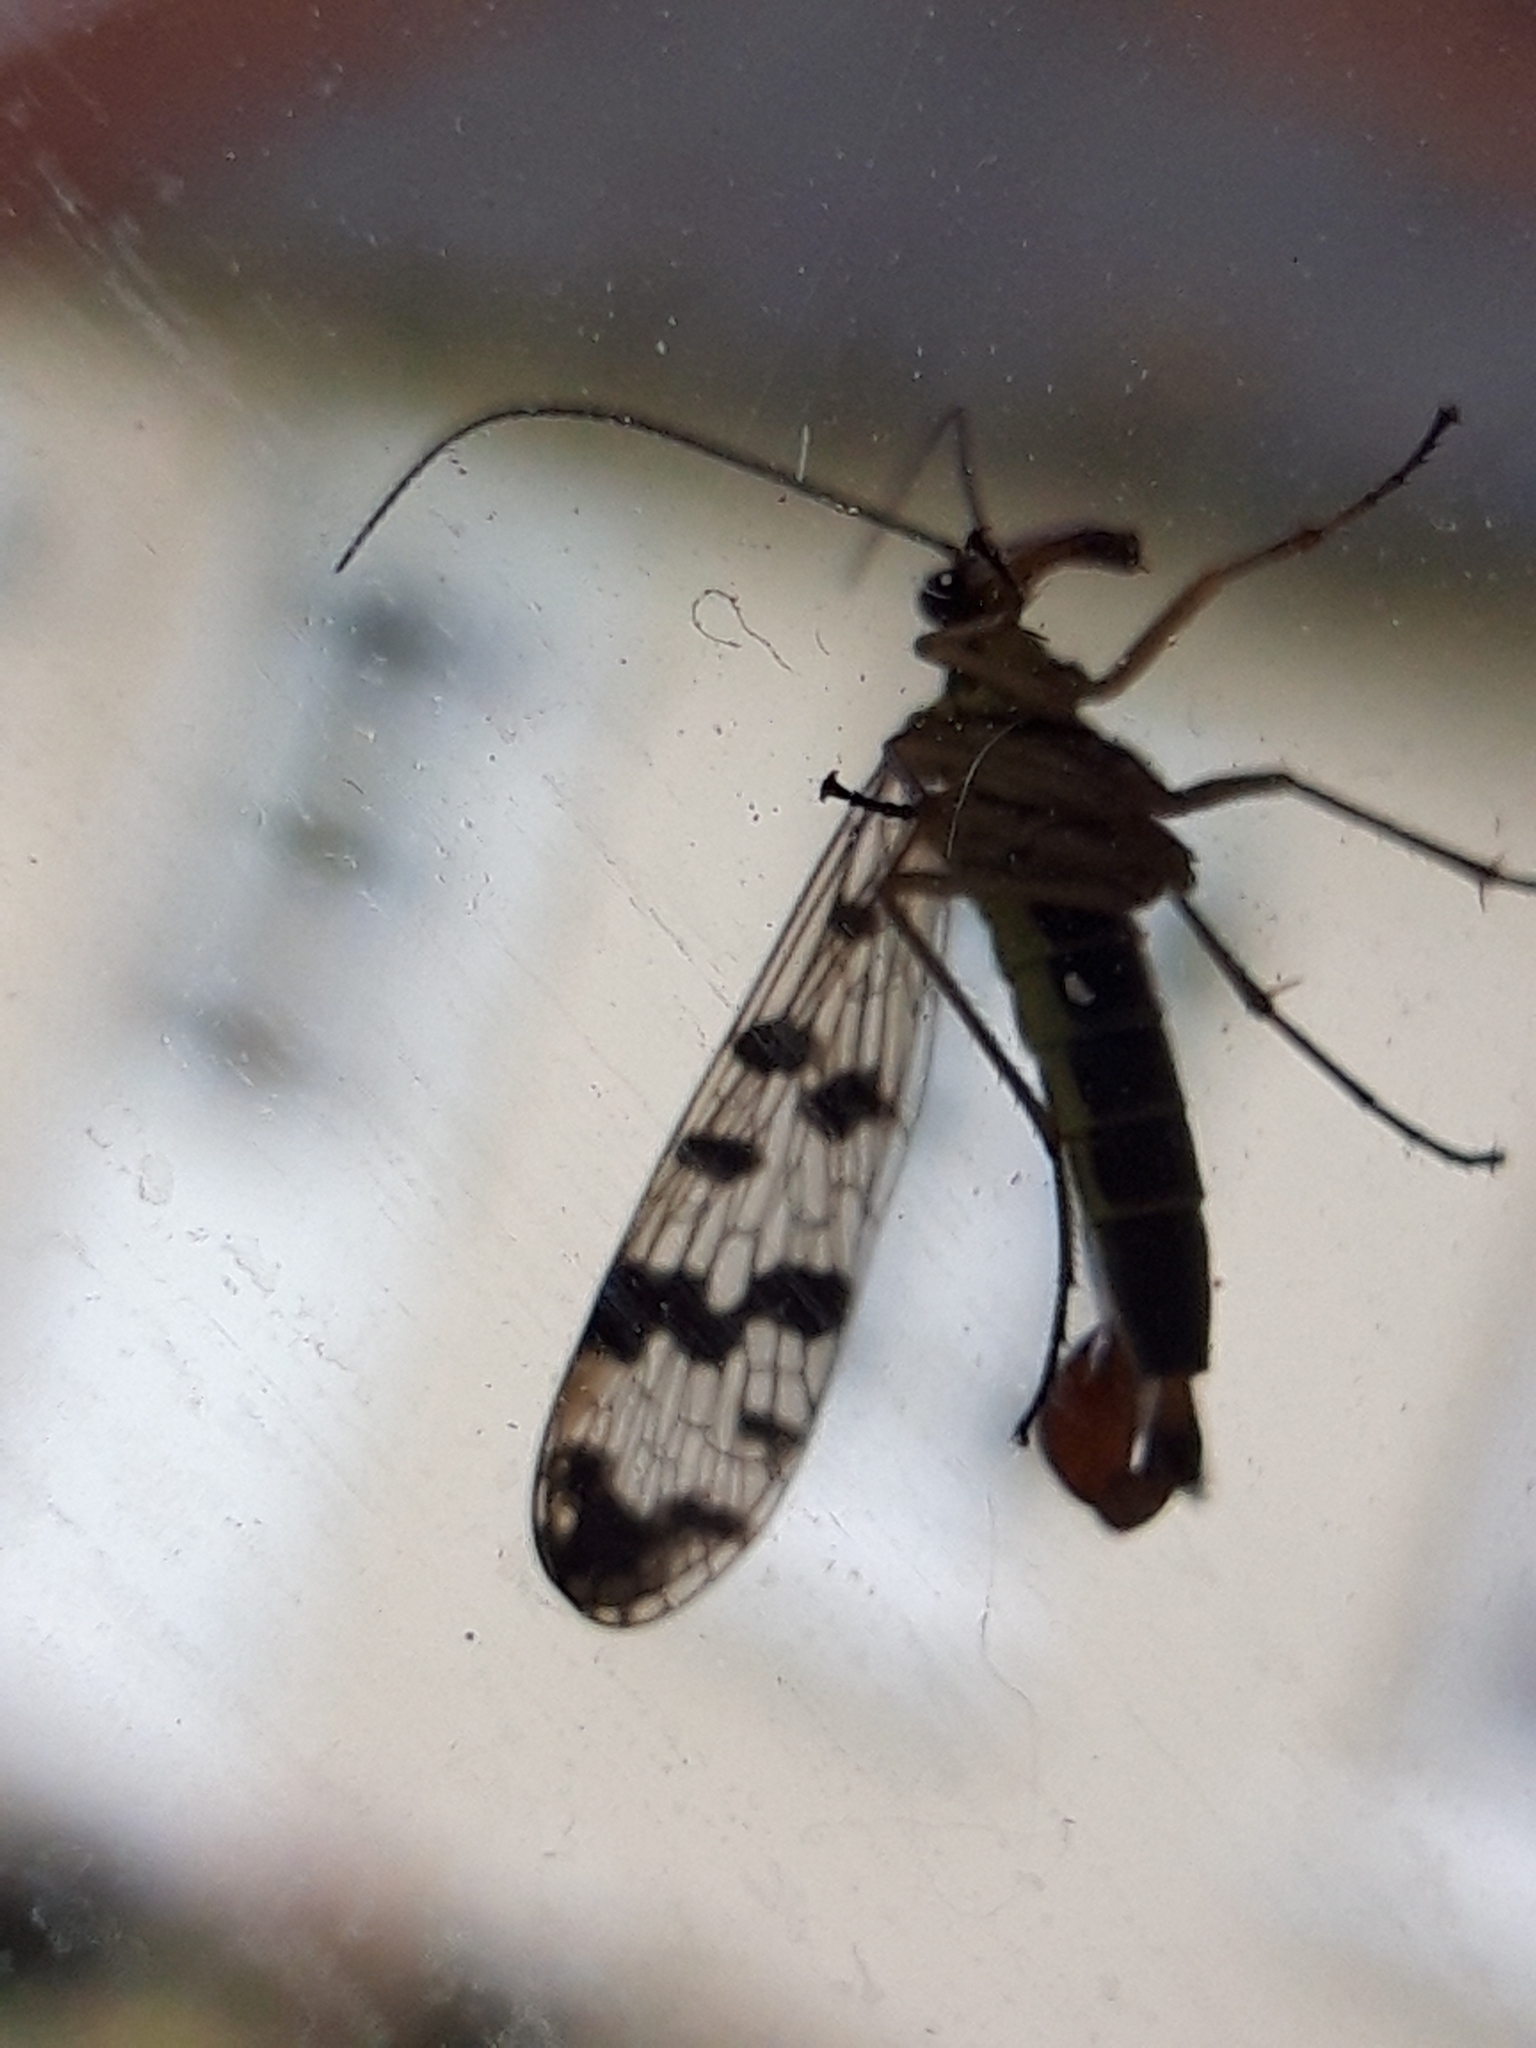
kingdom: Animalia
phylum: Arthropoda
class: Insecta
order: Mecoptera
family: Panorpidae
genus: Panorpa
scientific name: Panorpa communis
